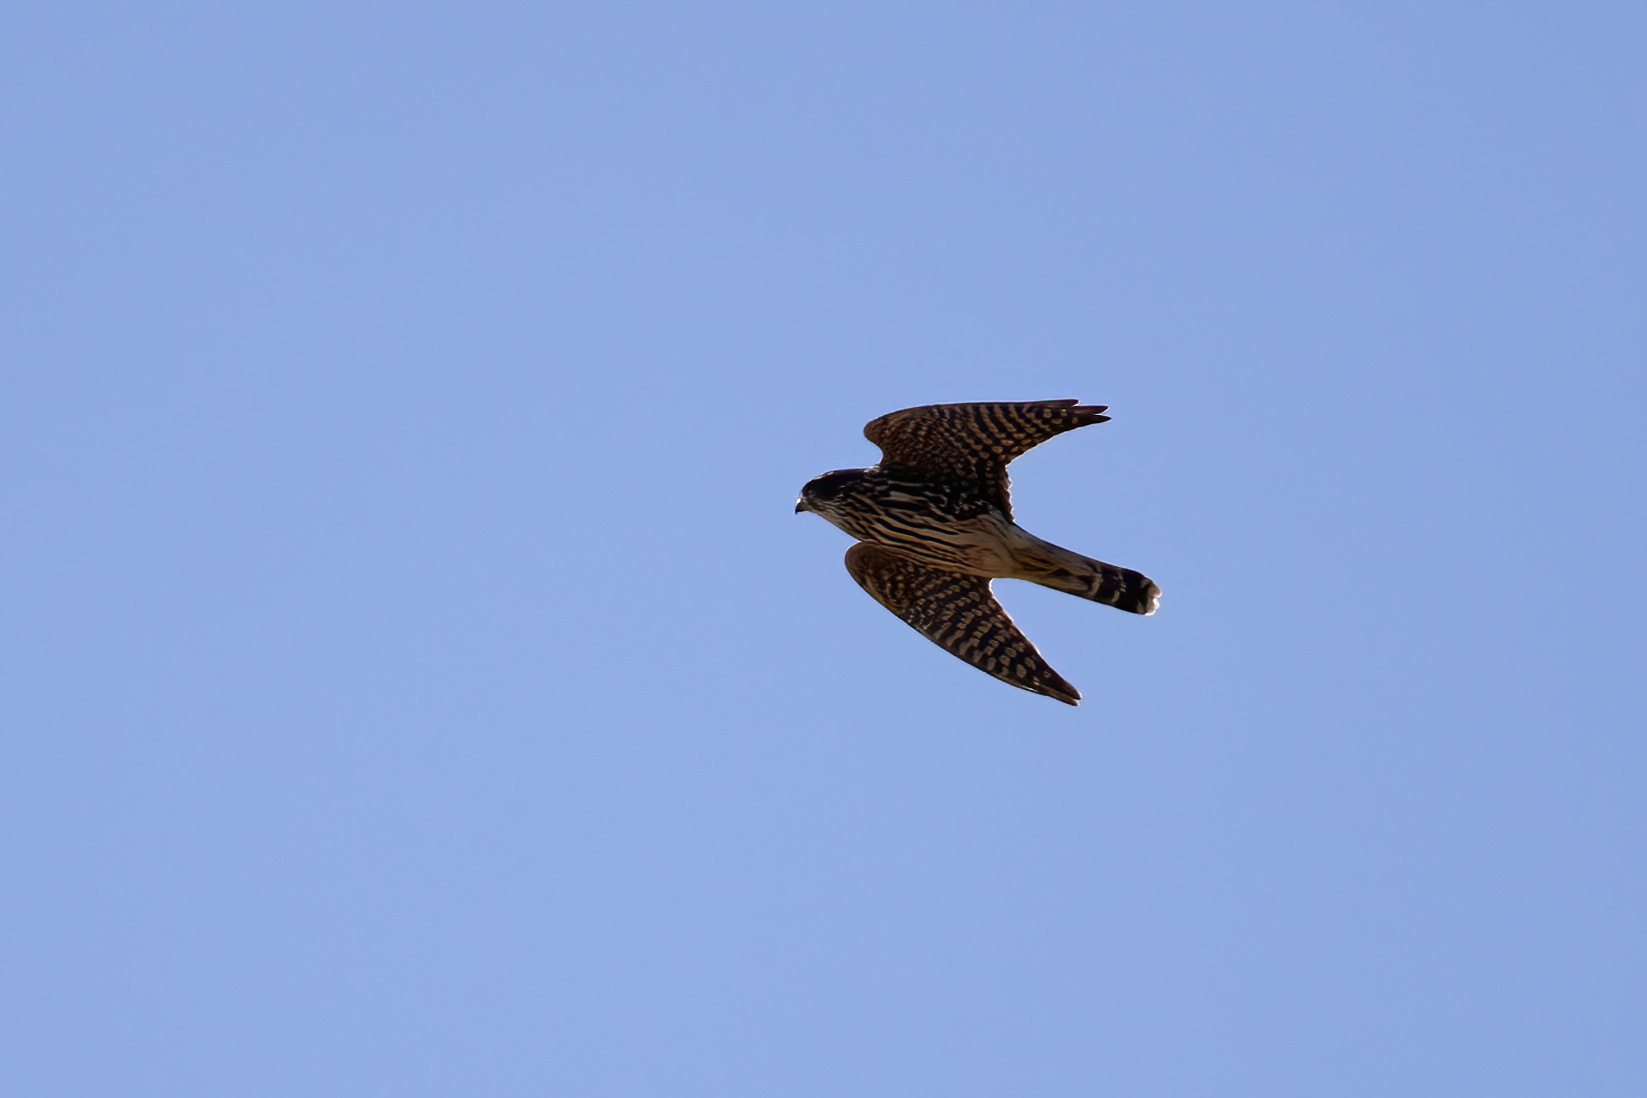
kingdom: Animalia
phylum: Chordata
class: Aves
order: Falconiformes
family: Falconidae
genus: Falco
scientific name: Falco columbarius
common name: Merlin
